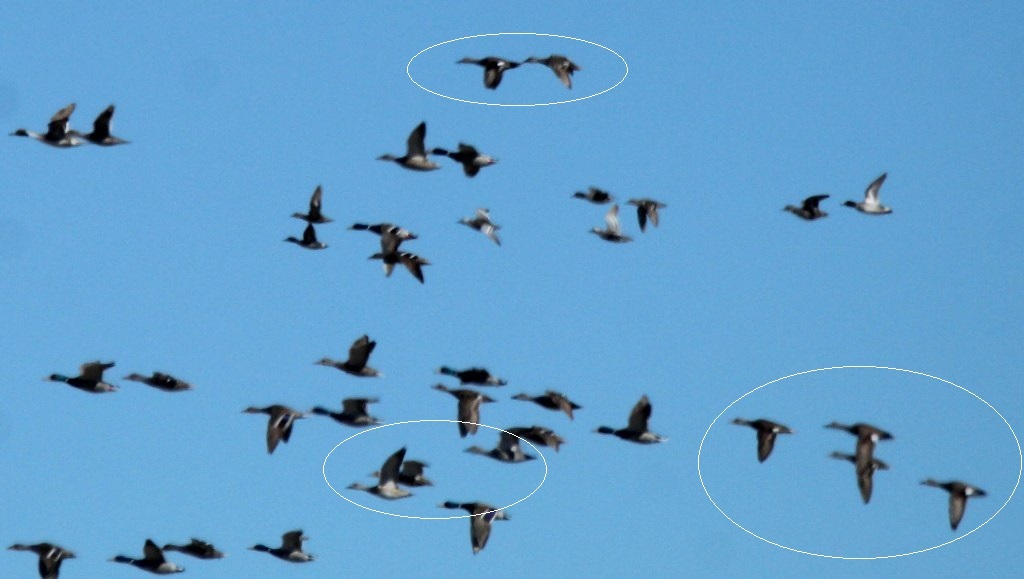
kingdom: Animalia
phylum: Chordata
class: Aves
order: Anseriformes
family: Anatidae
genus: Mareca
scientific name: Mareca strepera
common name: Gadwall
